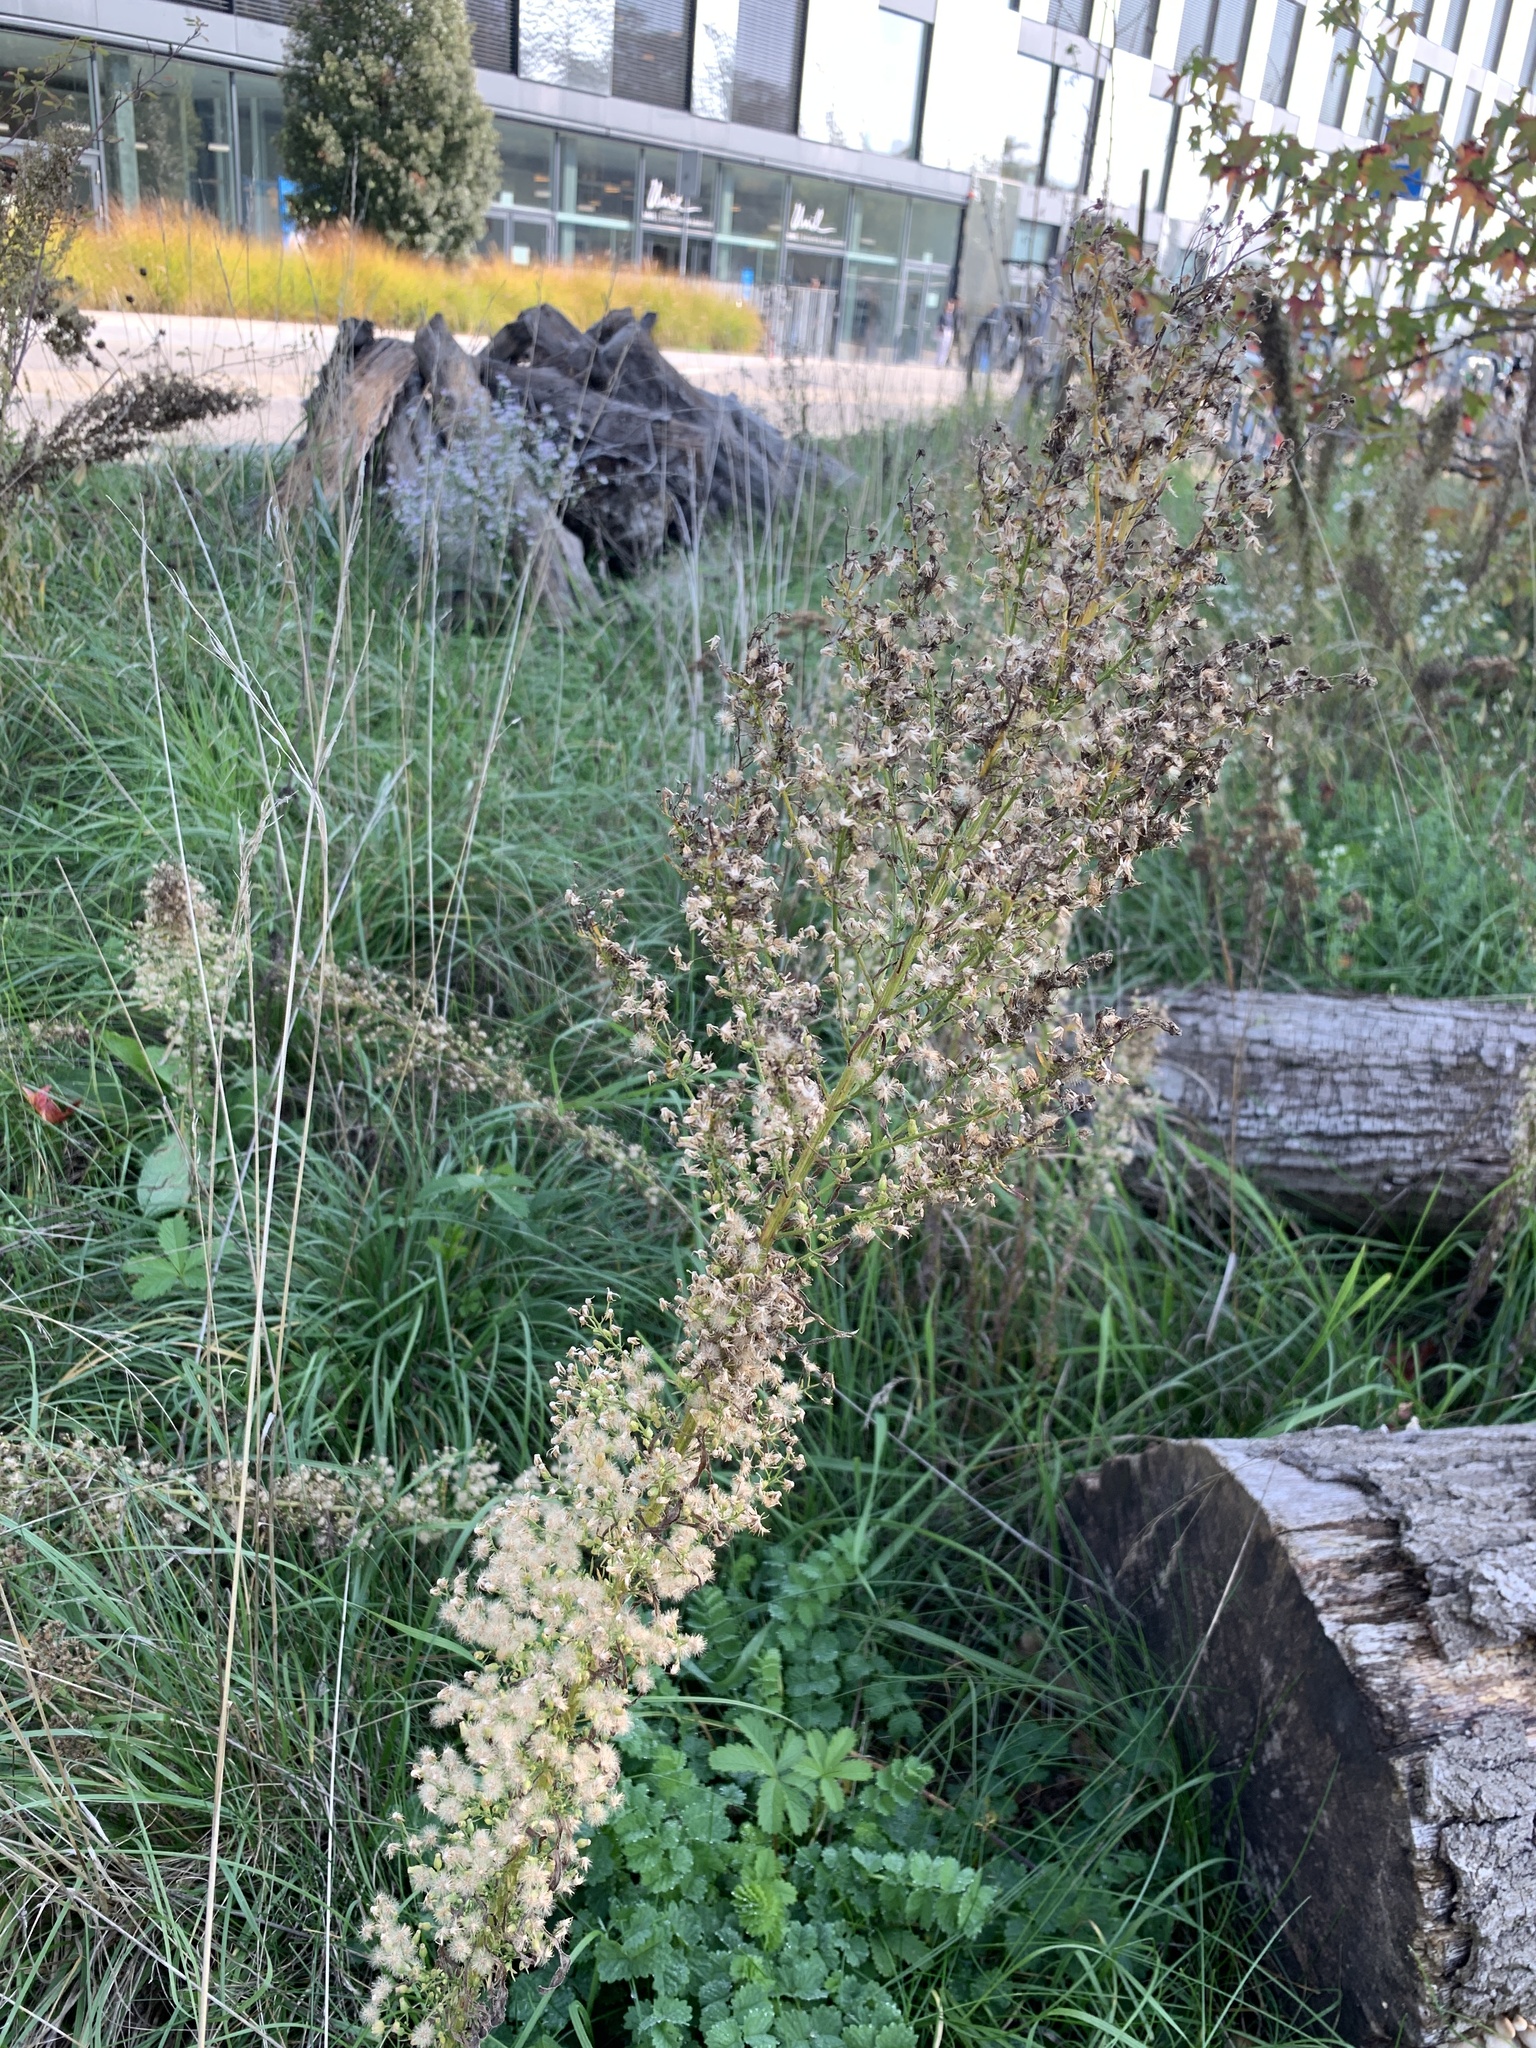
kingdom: Plantae
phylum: Tracheophyta
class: Magnoliopsida
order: Asterales
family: Asteraceae
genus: Erigeron
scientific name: Erigeron canadensis
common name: Canadian fleabane
